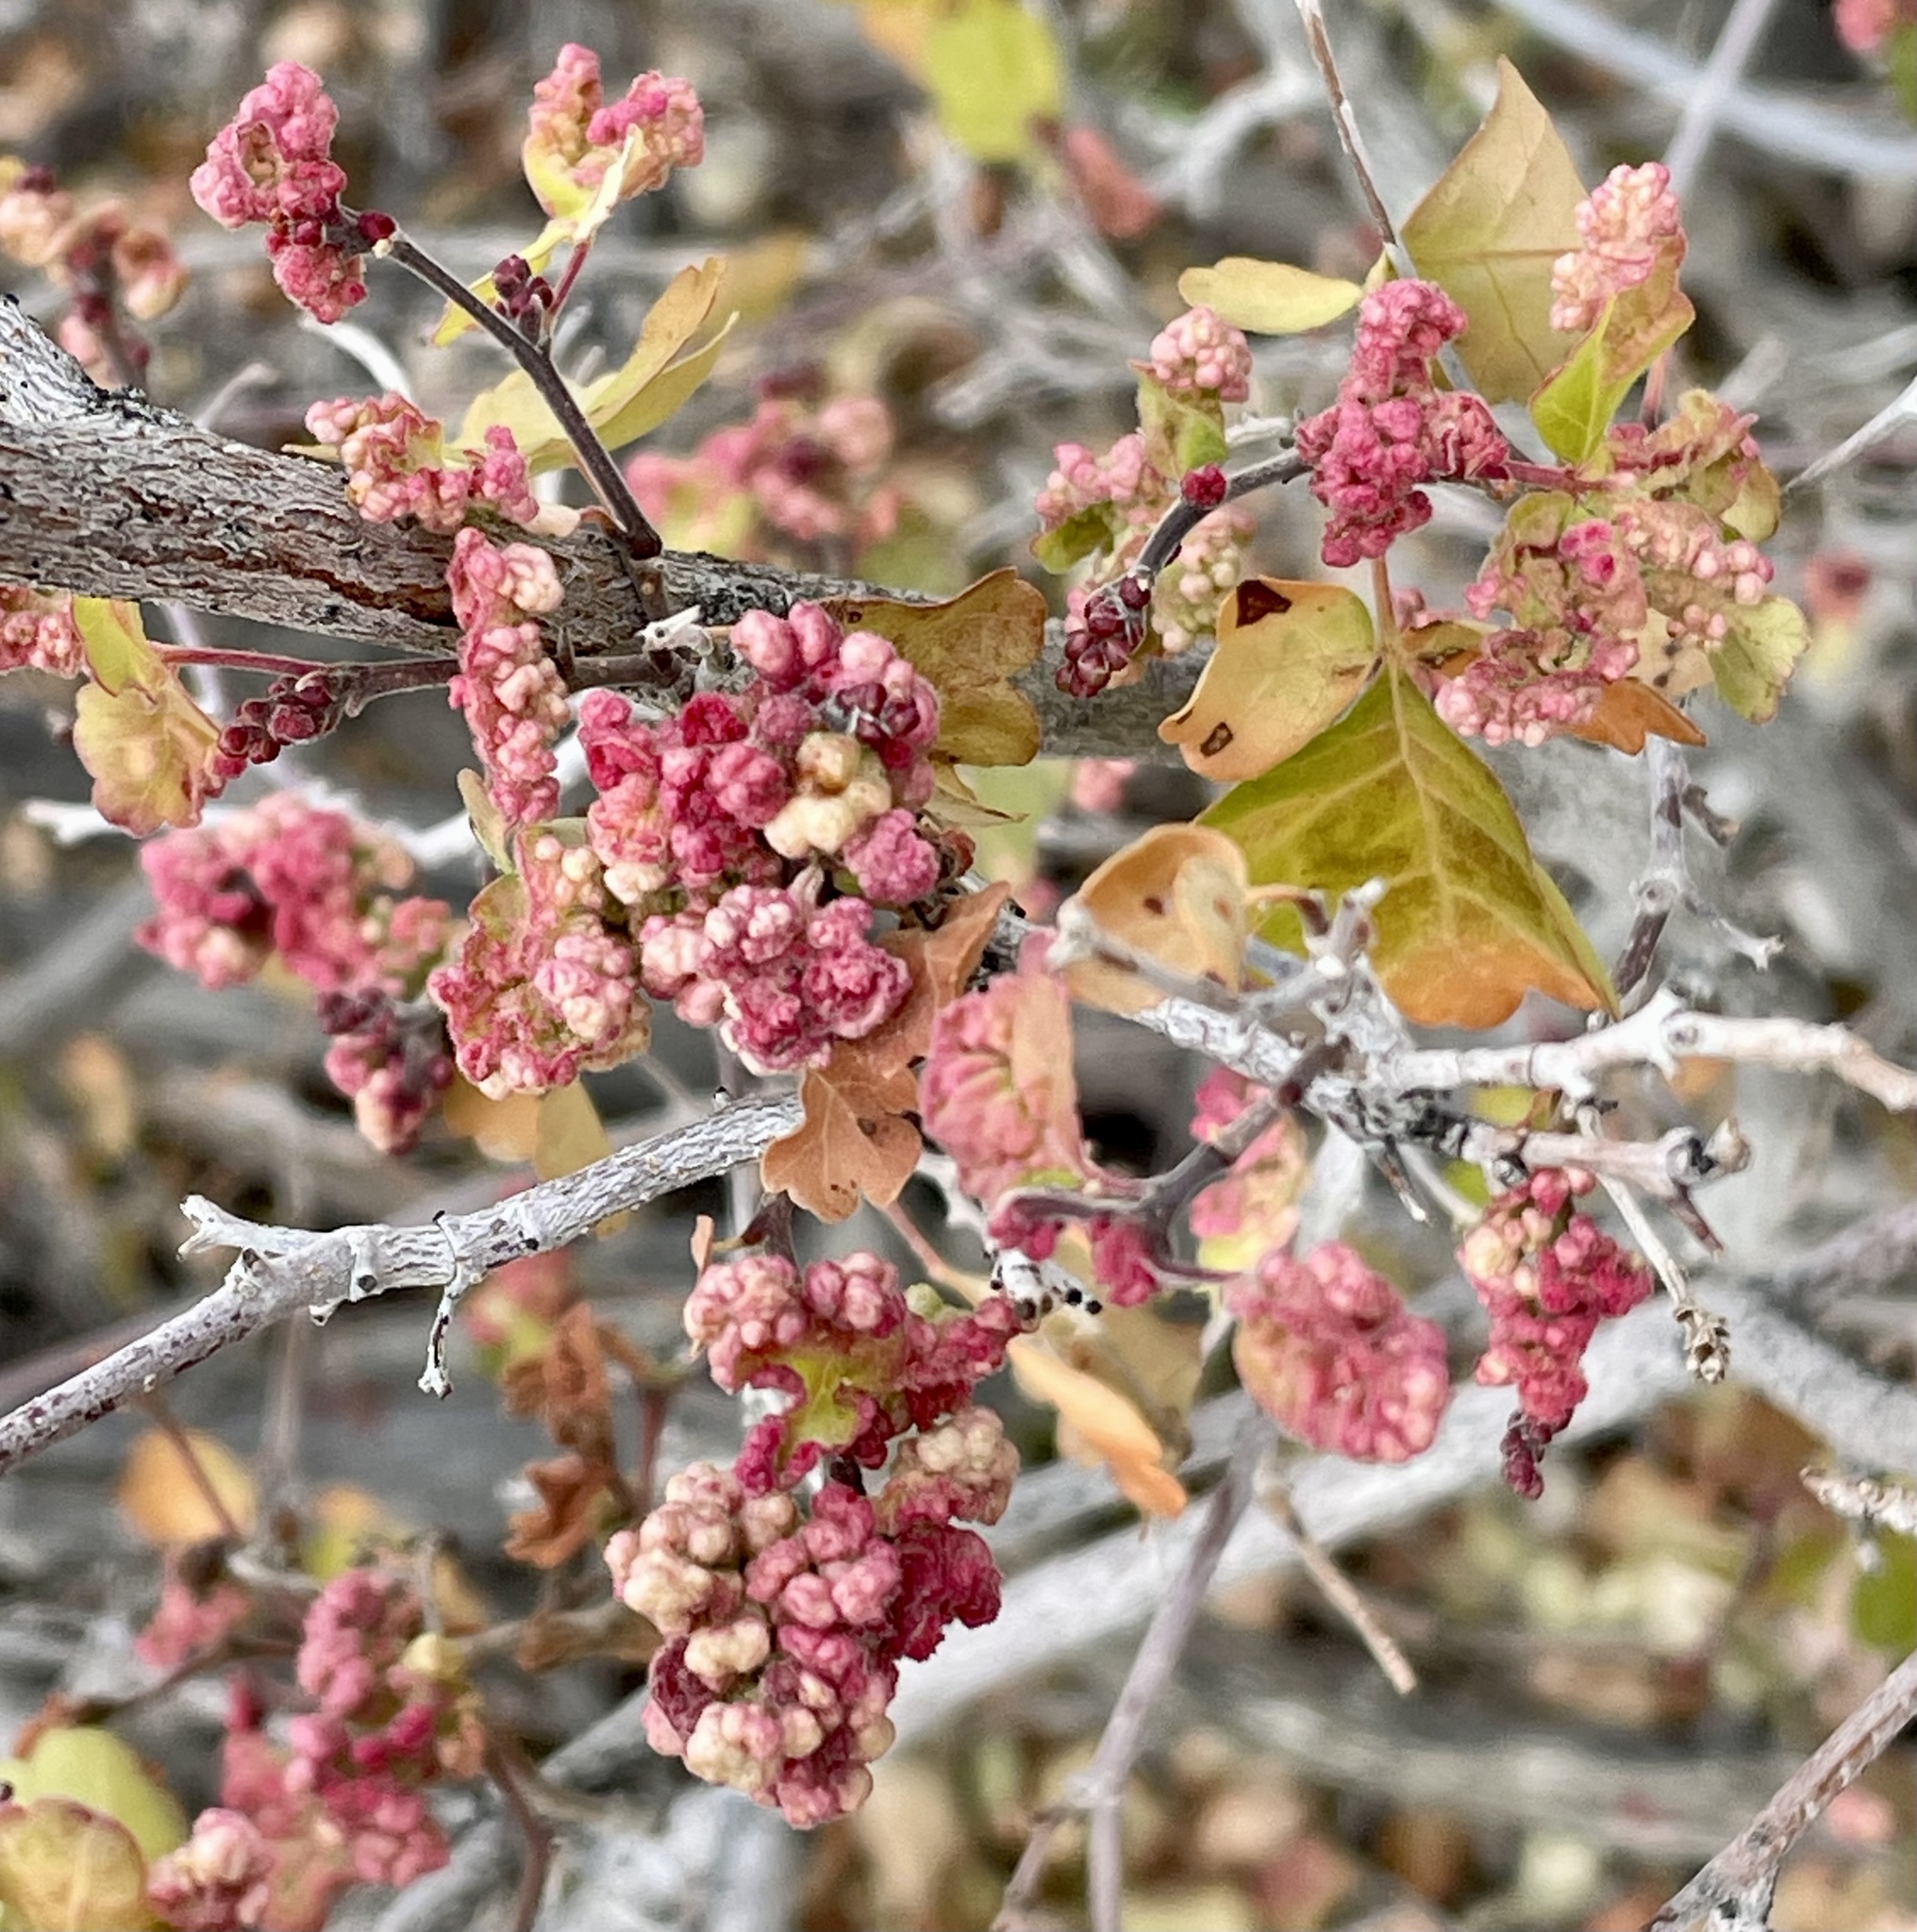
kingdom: Plantae
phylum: Tracheophyta
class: Magnoliopsida
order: Sapindales
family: Anacardiaceae
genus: Rhus
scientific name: Rhus aromatica
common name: Aromatic sumac
